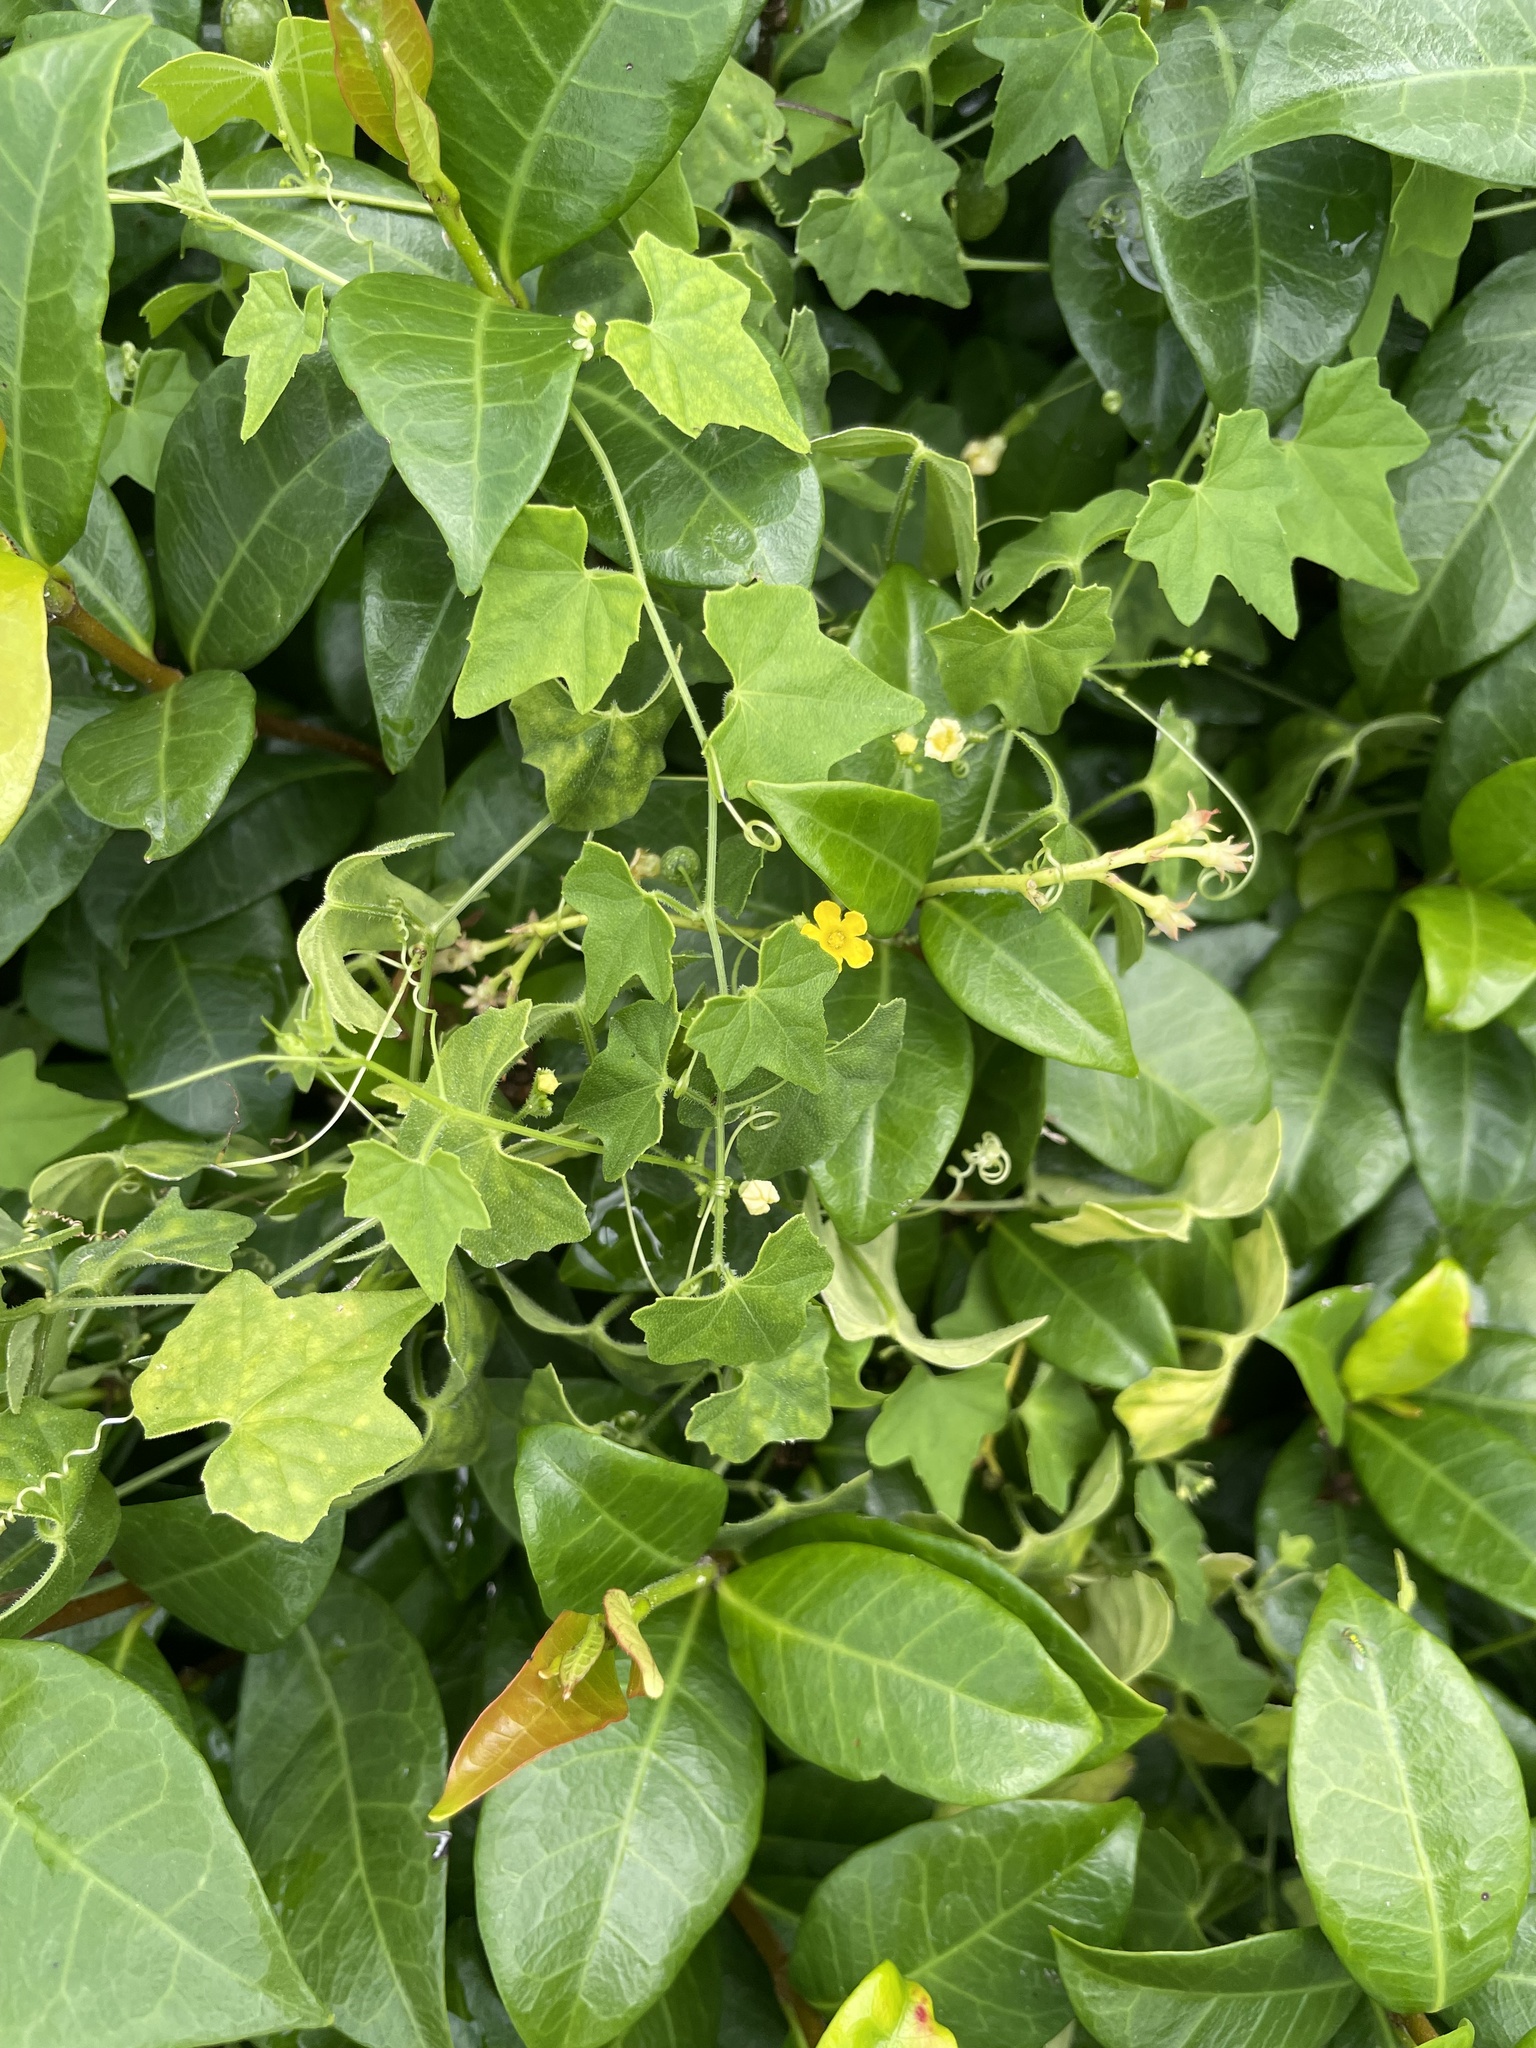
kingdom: Plantae
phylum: Tracheophyta
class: Magnoliopsida
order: Cucurbitales
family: Cucurbitaceae
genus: Melothria
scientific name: Melothria pendula
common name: Creeping-cucumber
